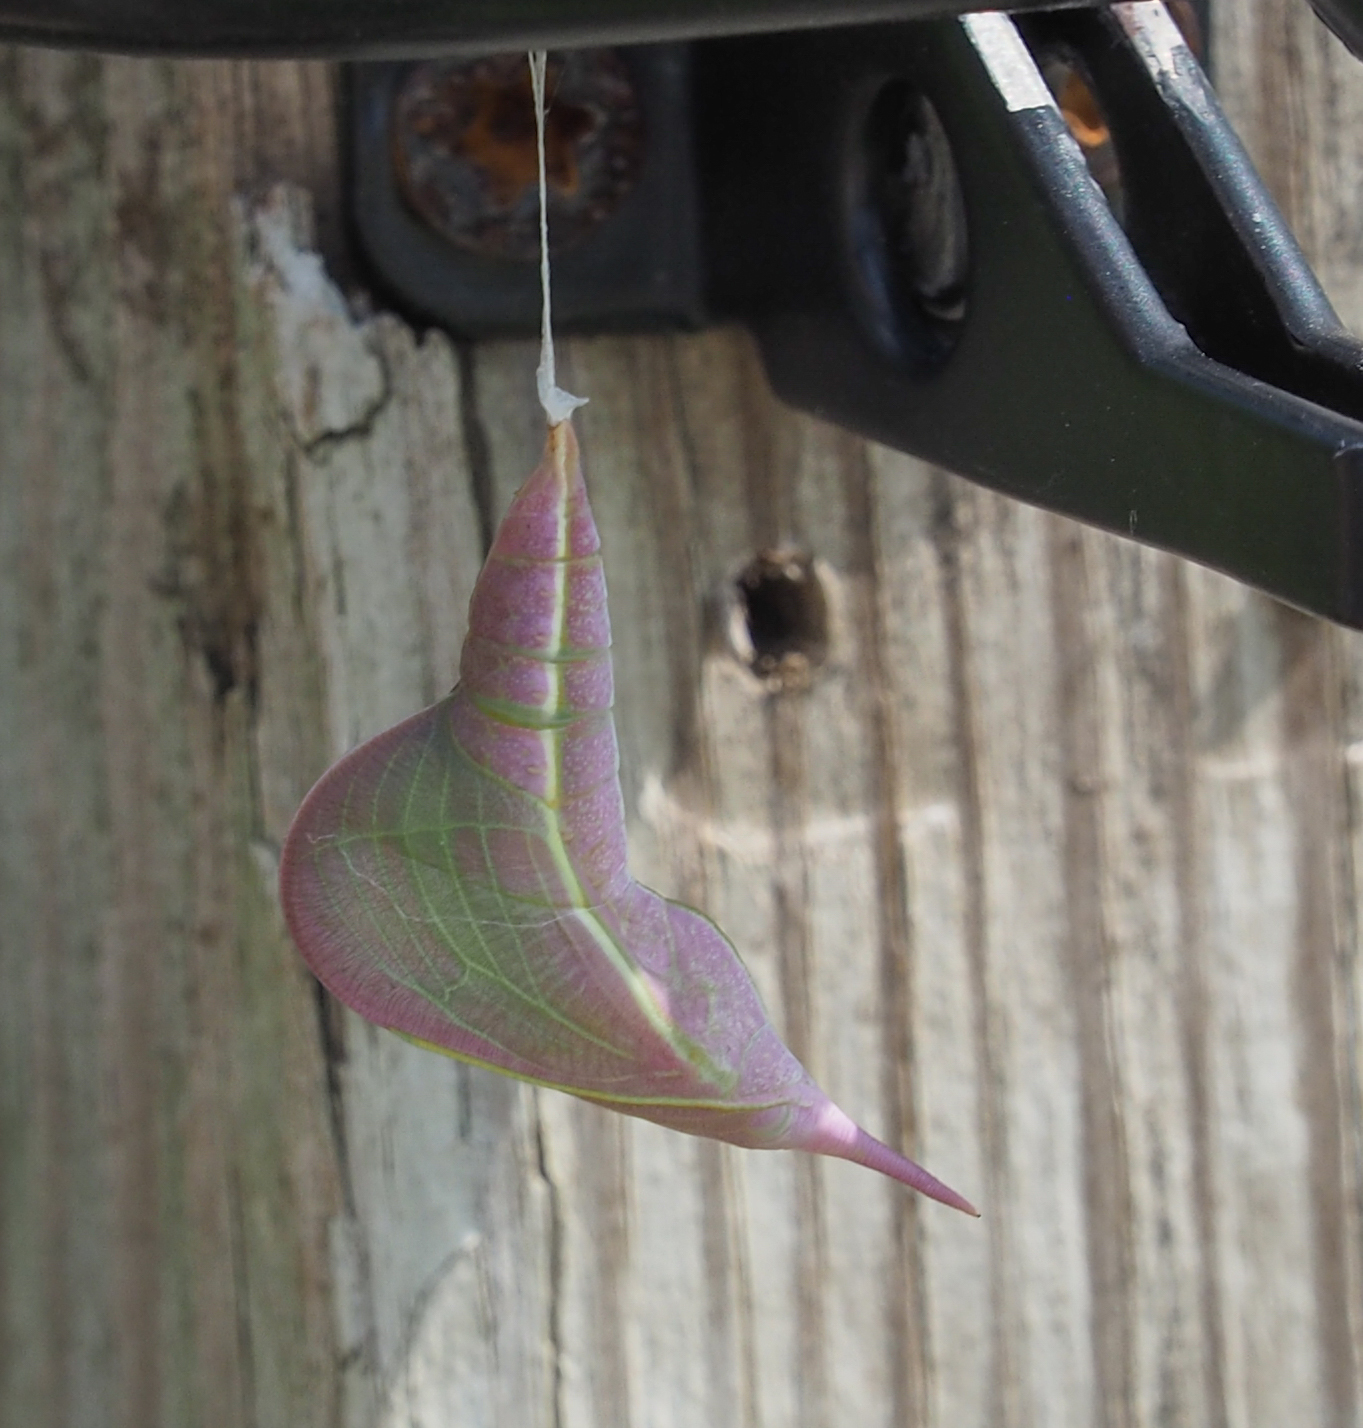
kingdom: Animalia
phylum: Arthropoda
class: Insecta
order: Lepidoptera
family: Pieridae
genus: Phoebis
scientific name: Phoebis sennae
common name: Cloudless sulphur
